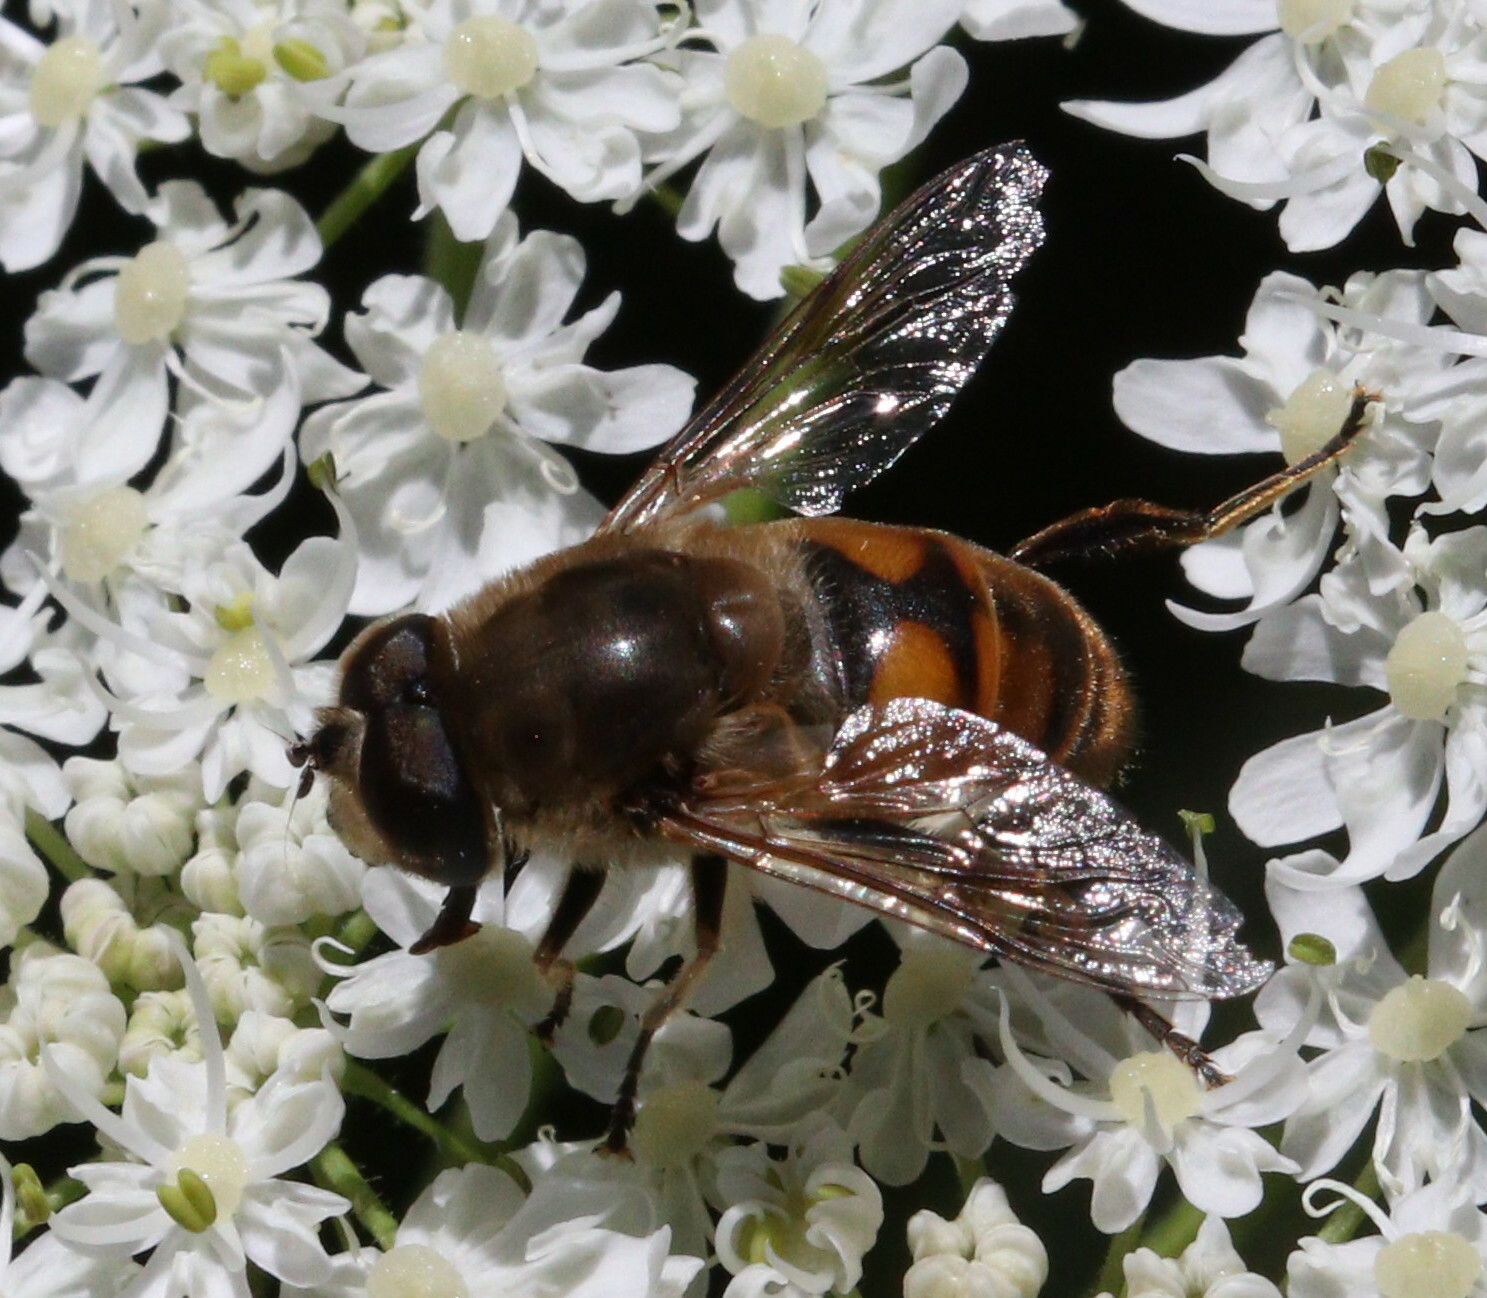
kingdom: Animalia
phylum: Arthropoda
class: Insecta
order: Diptera
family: Syrphidae
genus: Eristalis
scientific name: Eristalis tenax
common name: Drone fly
